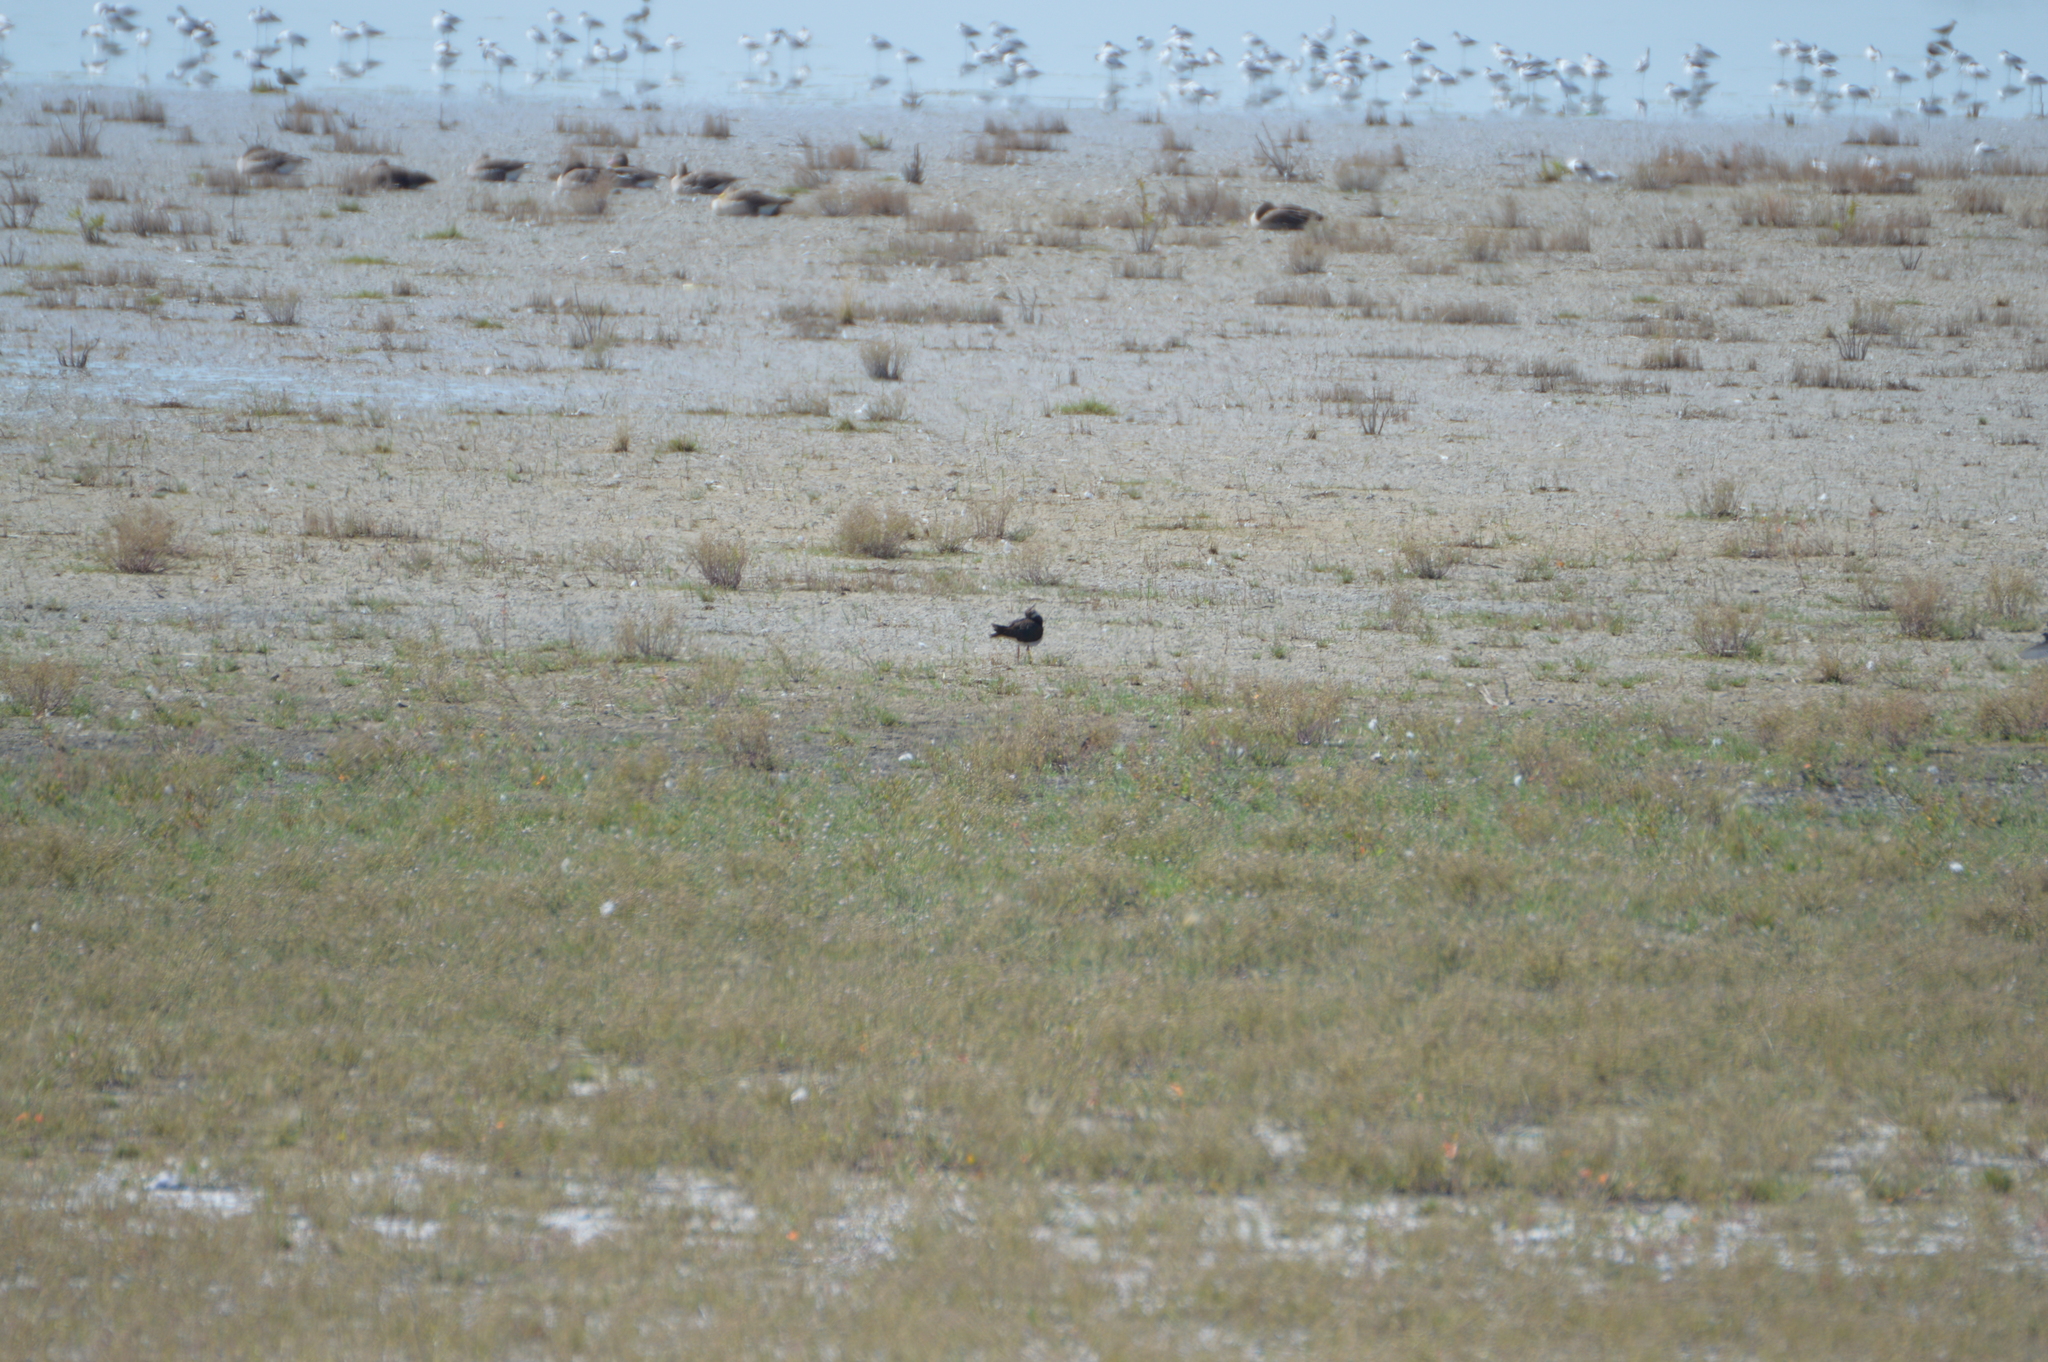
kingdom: Animalia
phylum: Chordata
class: Aves
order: Charadriiformes
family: Charadriidae
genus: Vanellus
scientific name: Vanellus vanellus
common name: Northern lapwing
